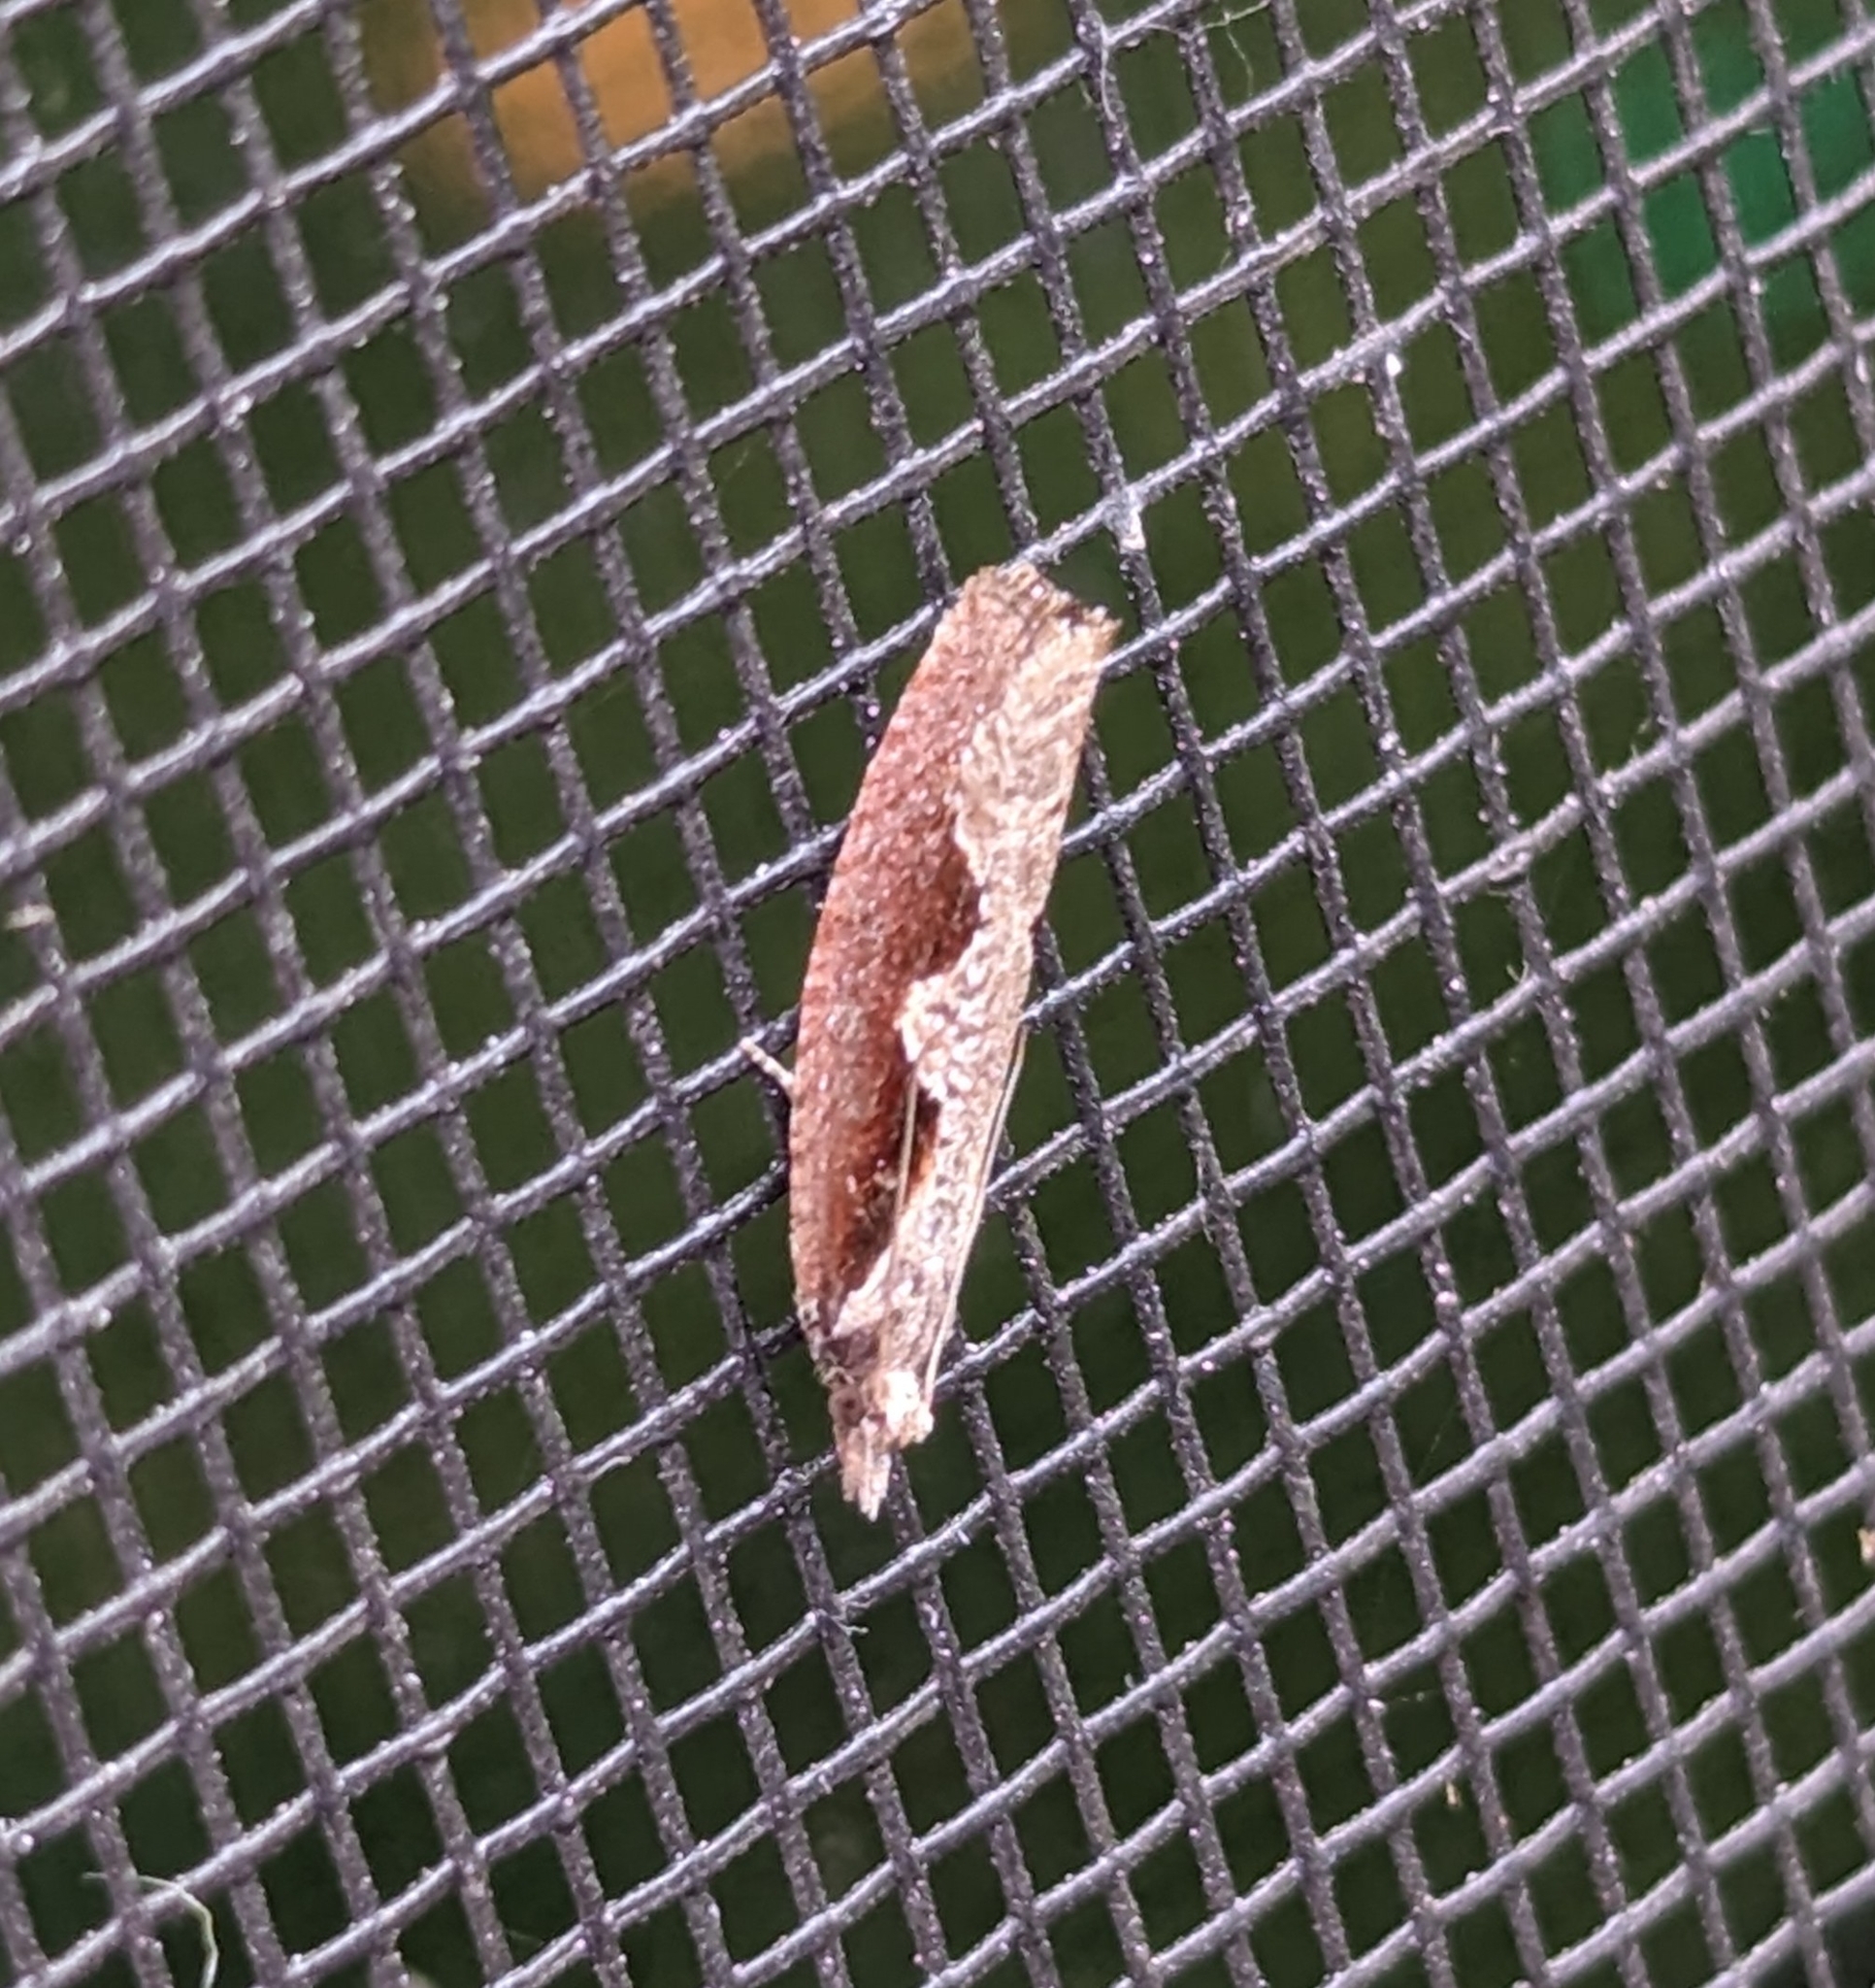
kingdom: Animalia
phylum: Arthropoda
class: Insecta
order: Lepidoptera
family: Tortricidae
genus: Epinotia
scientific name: Epinotia lindana
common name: Diamondback epinotia moth
